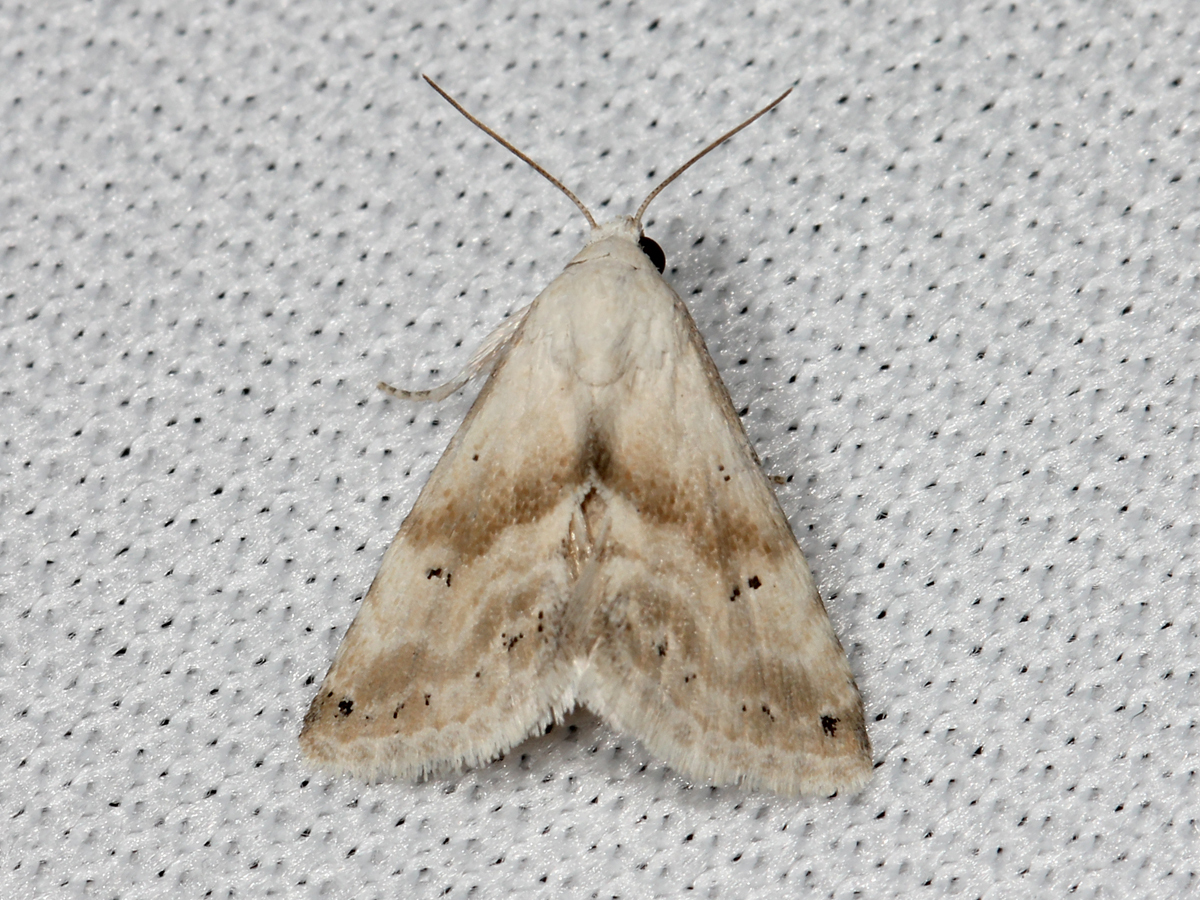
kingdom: Animalia
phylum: Arthropoda
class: Insecta
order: Lepidoptera
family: Noctuidae
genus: Eublemma
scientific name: Eublemma minima
